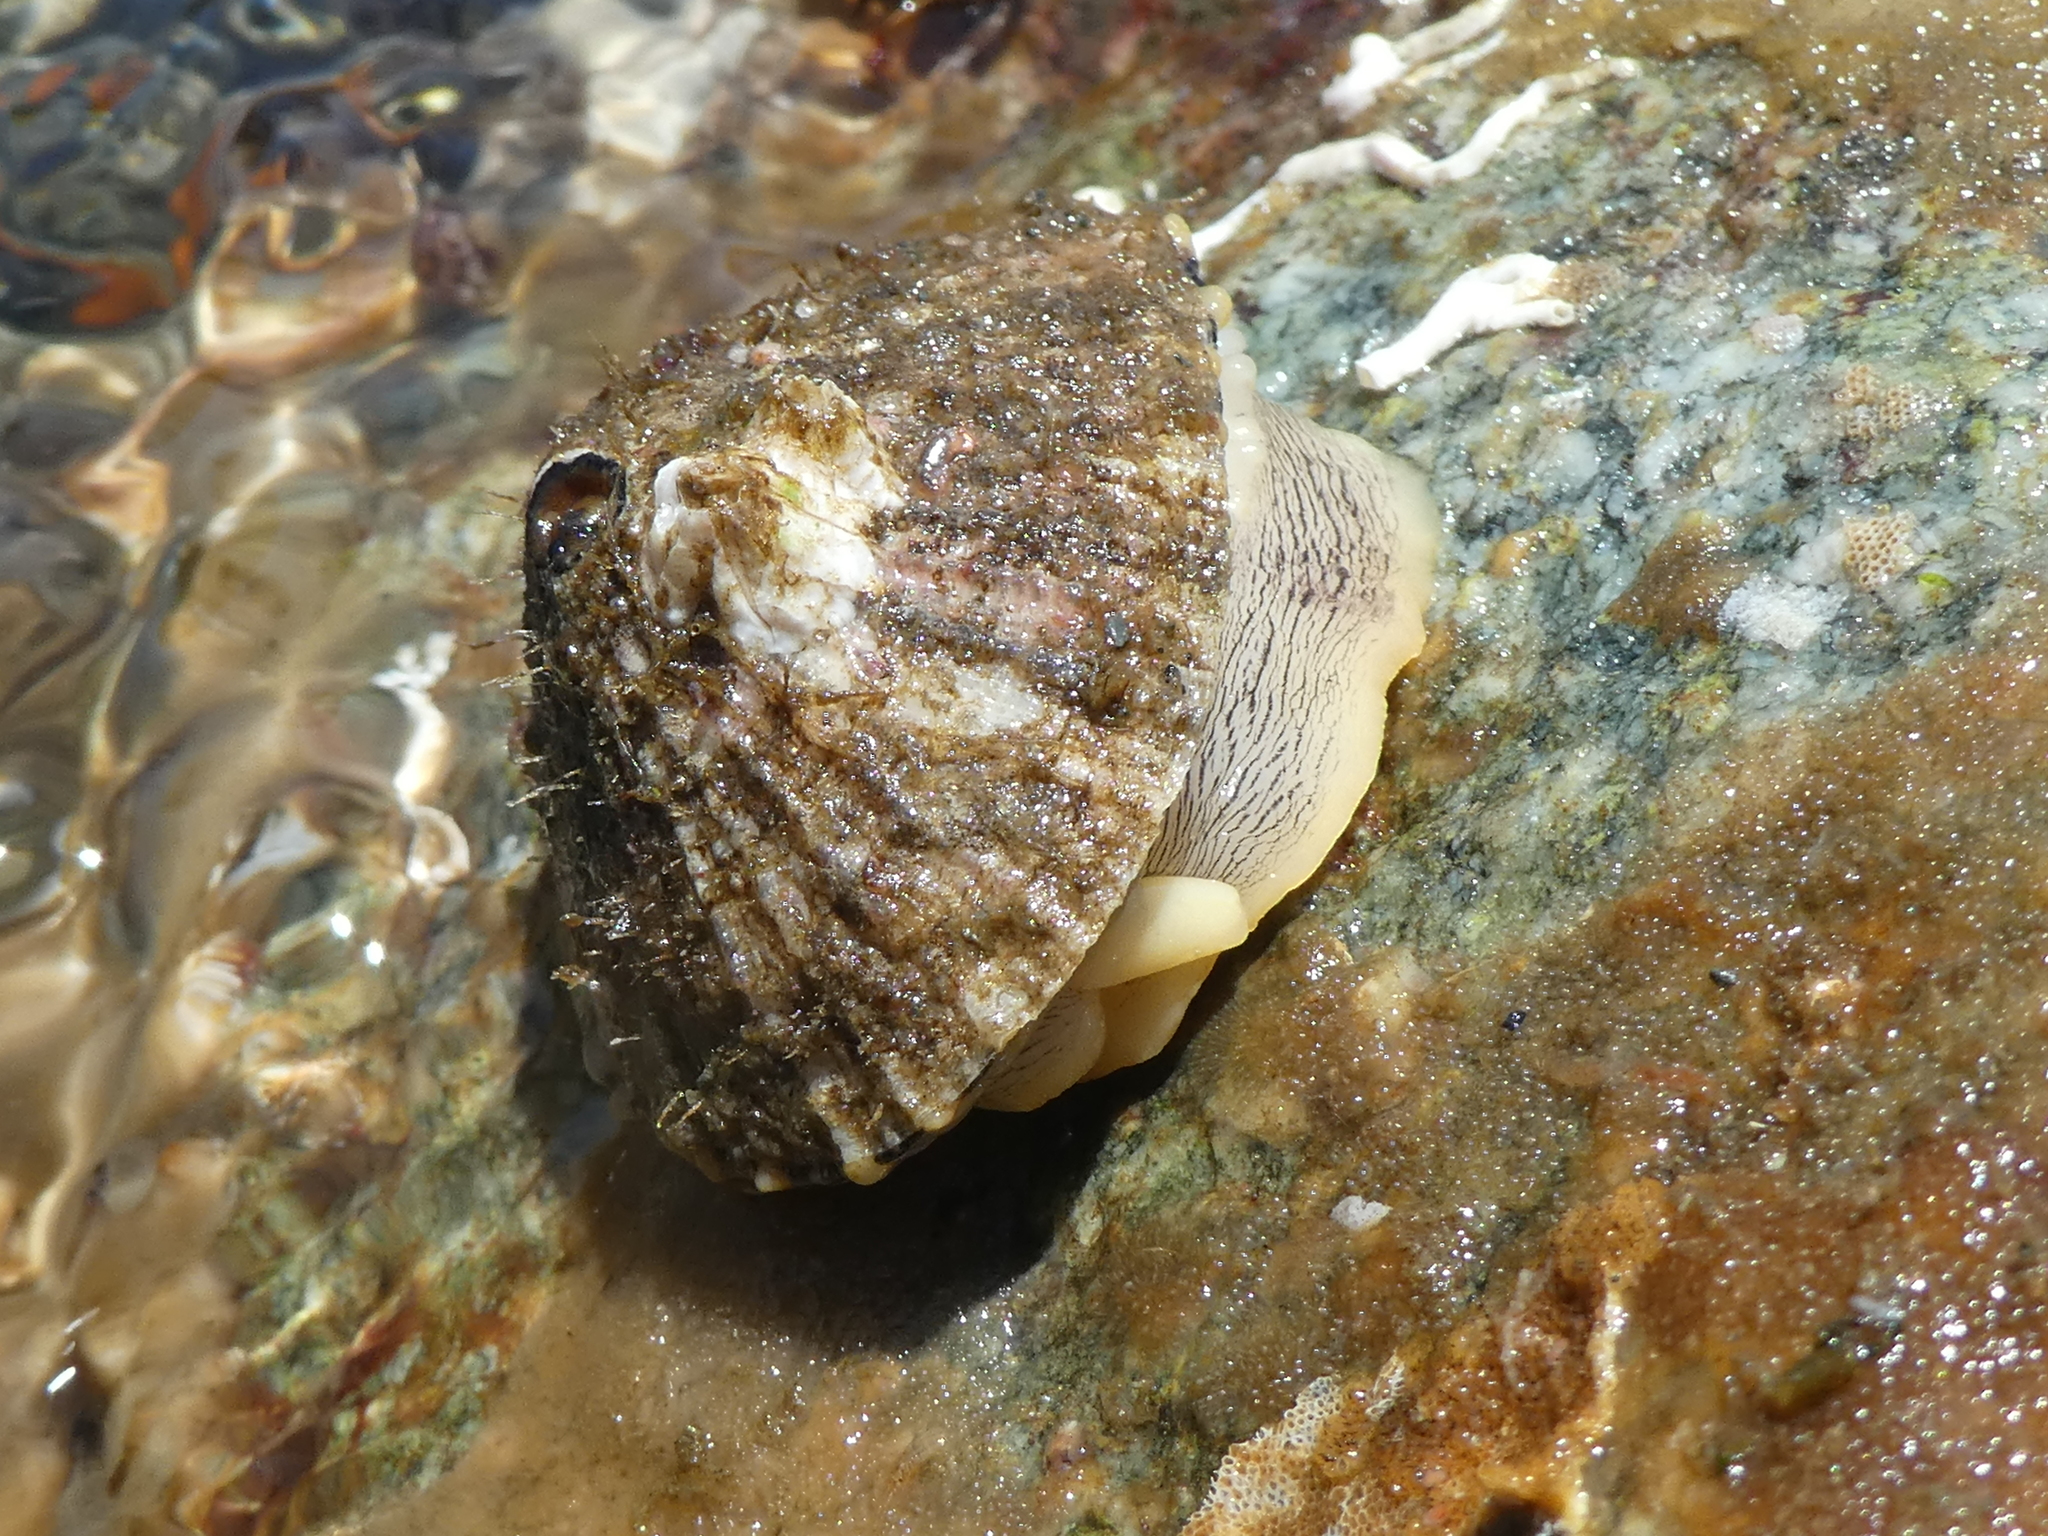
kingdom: Animalia
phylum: Mollusca
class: Gastropoda
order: Lepetellida
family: Fissurellidae
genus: Diodora
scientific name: Diodora aspera
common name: Rough keyhole limpet
